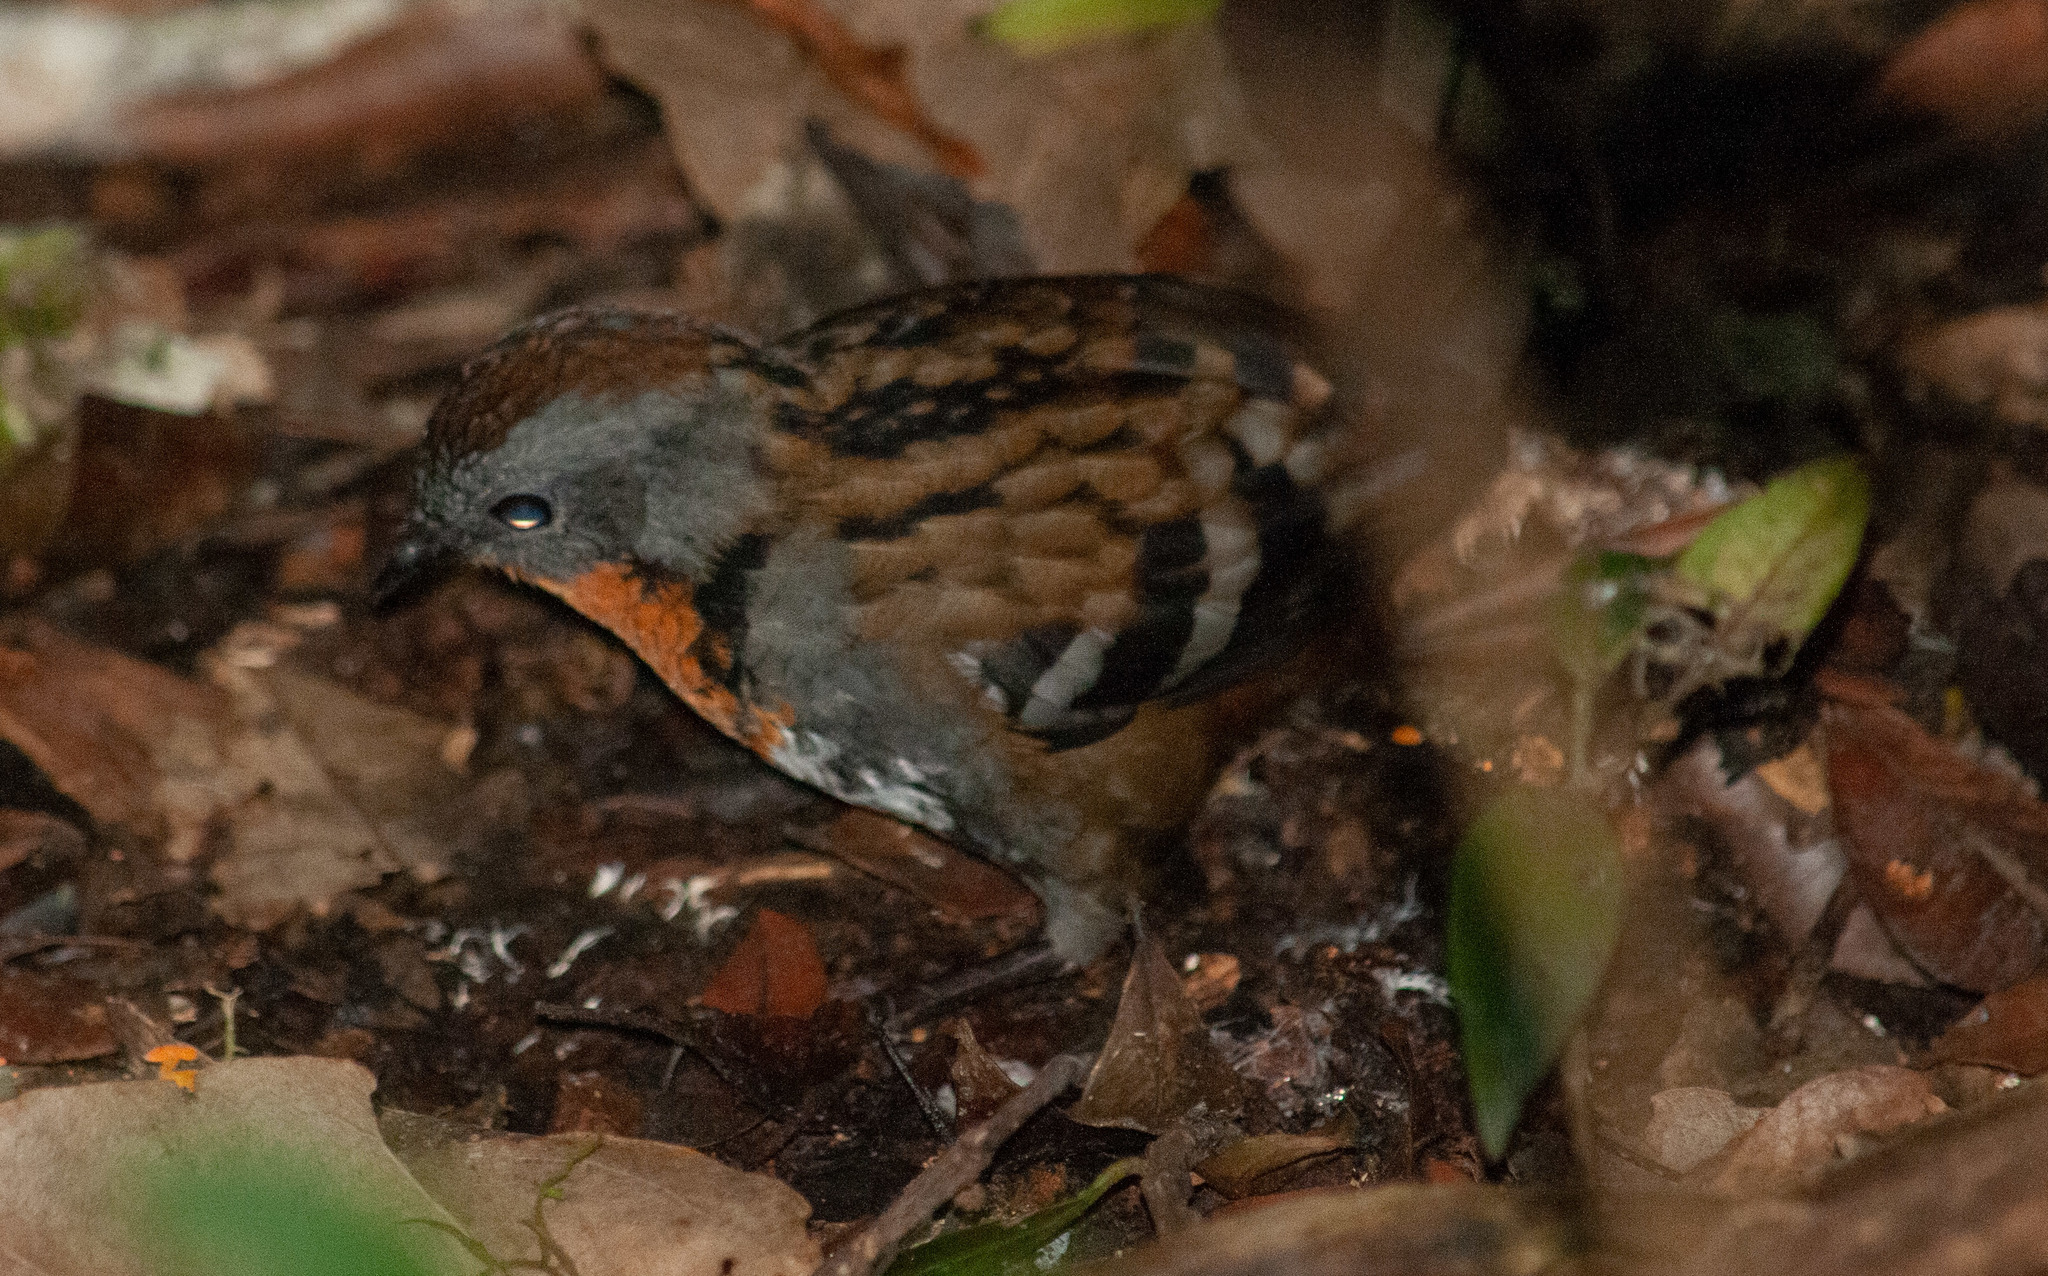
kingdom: Animalia
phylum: Chordata
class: Aves
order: Passeriformes
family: Orthonychidae
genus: Orthonyx
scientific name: Orthonyx temminckii
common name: Australian logrunner
